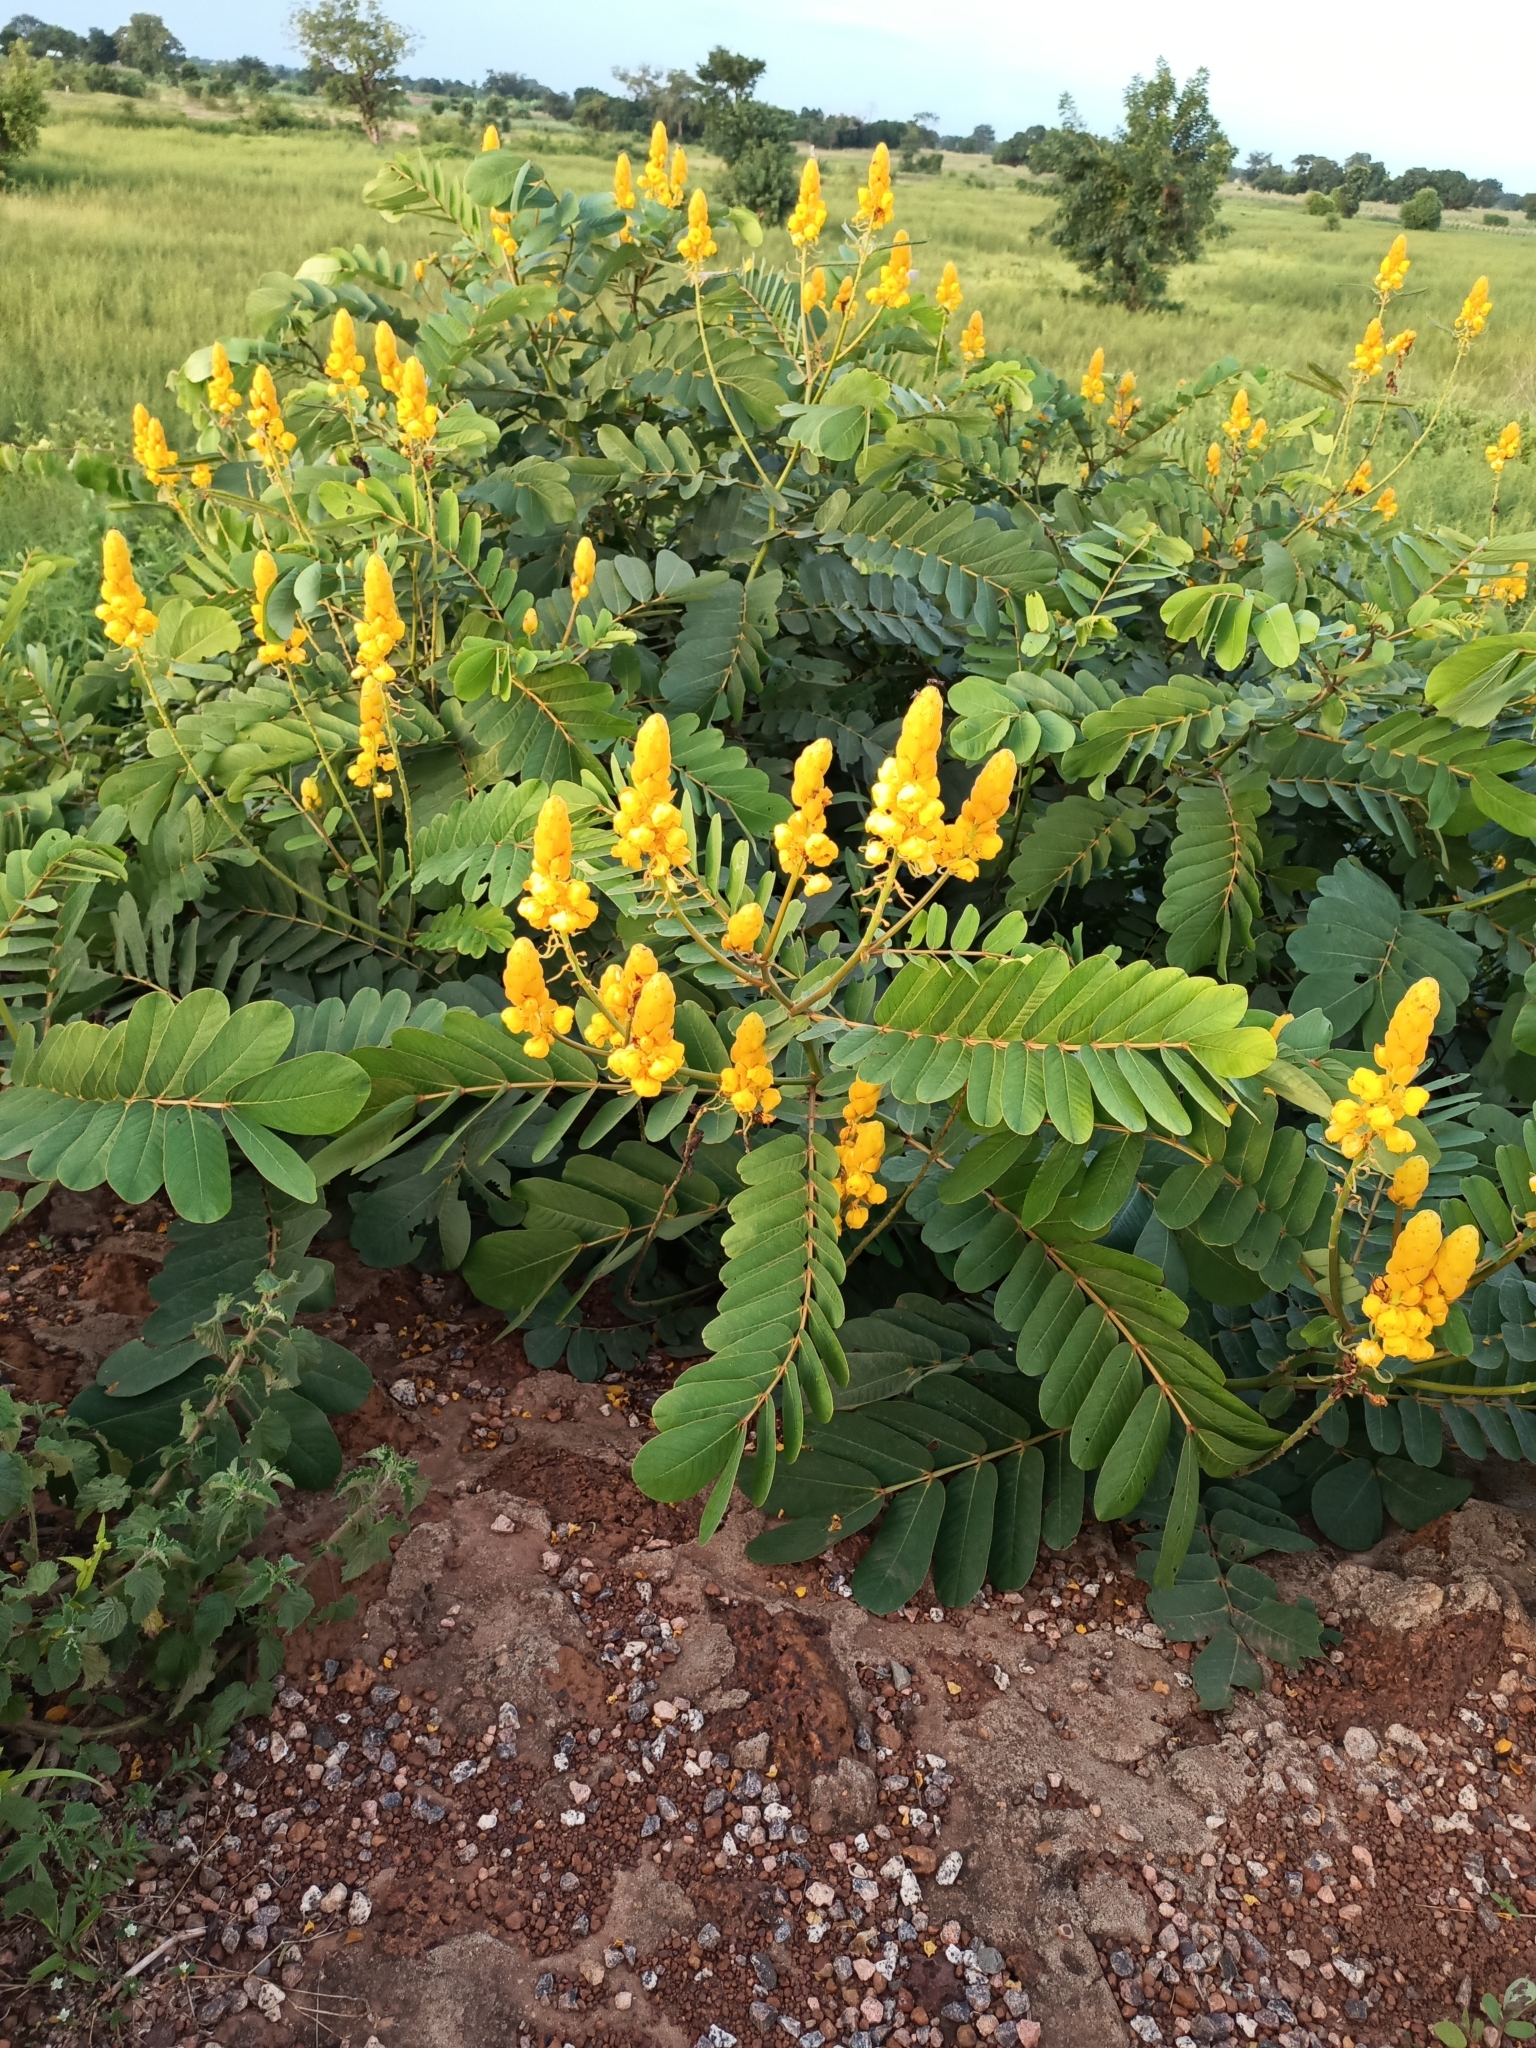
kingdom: Plantae
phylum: Tracheophyta
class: Magnoliopsida
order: Fabales
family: Fabaceae
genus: Senna
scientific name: Senna alata
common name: Emperor's candlesticks
